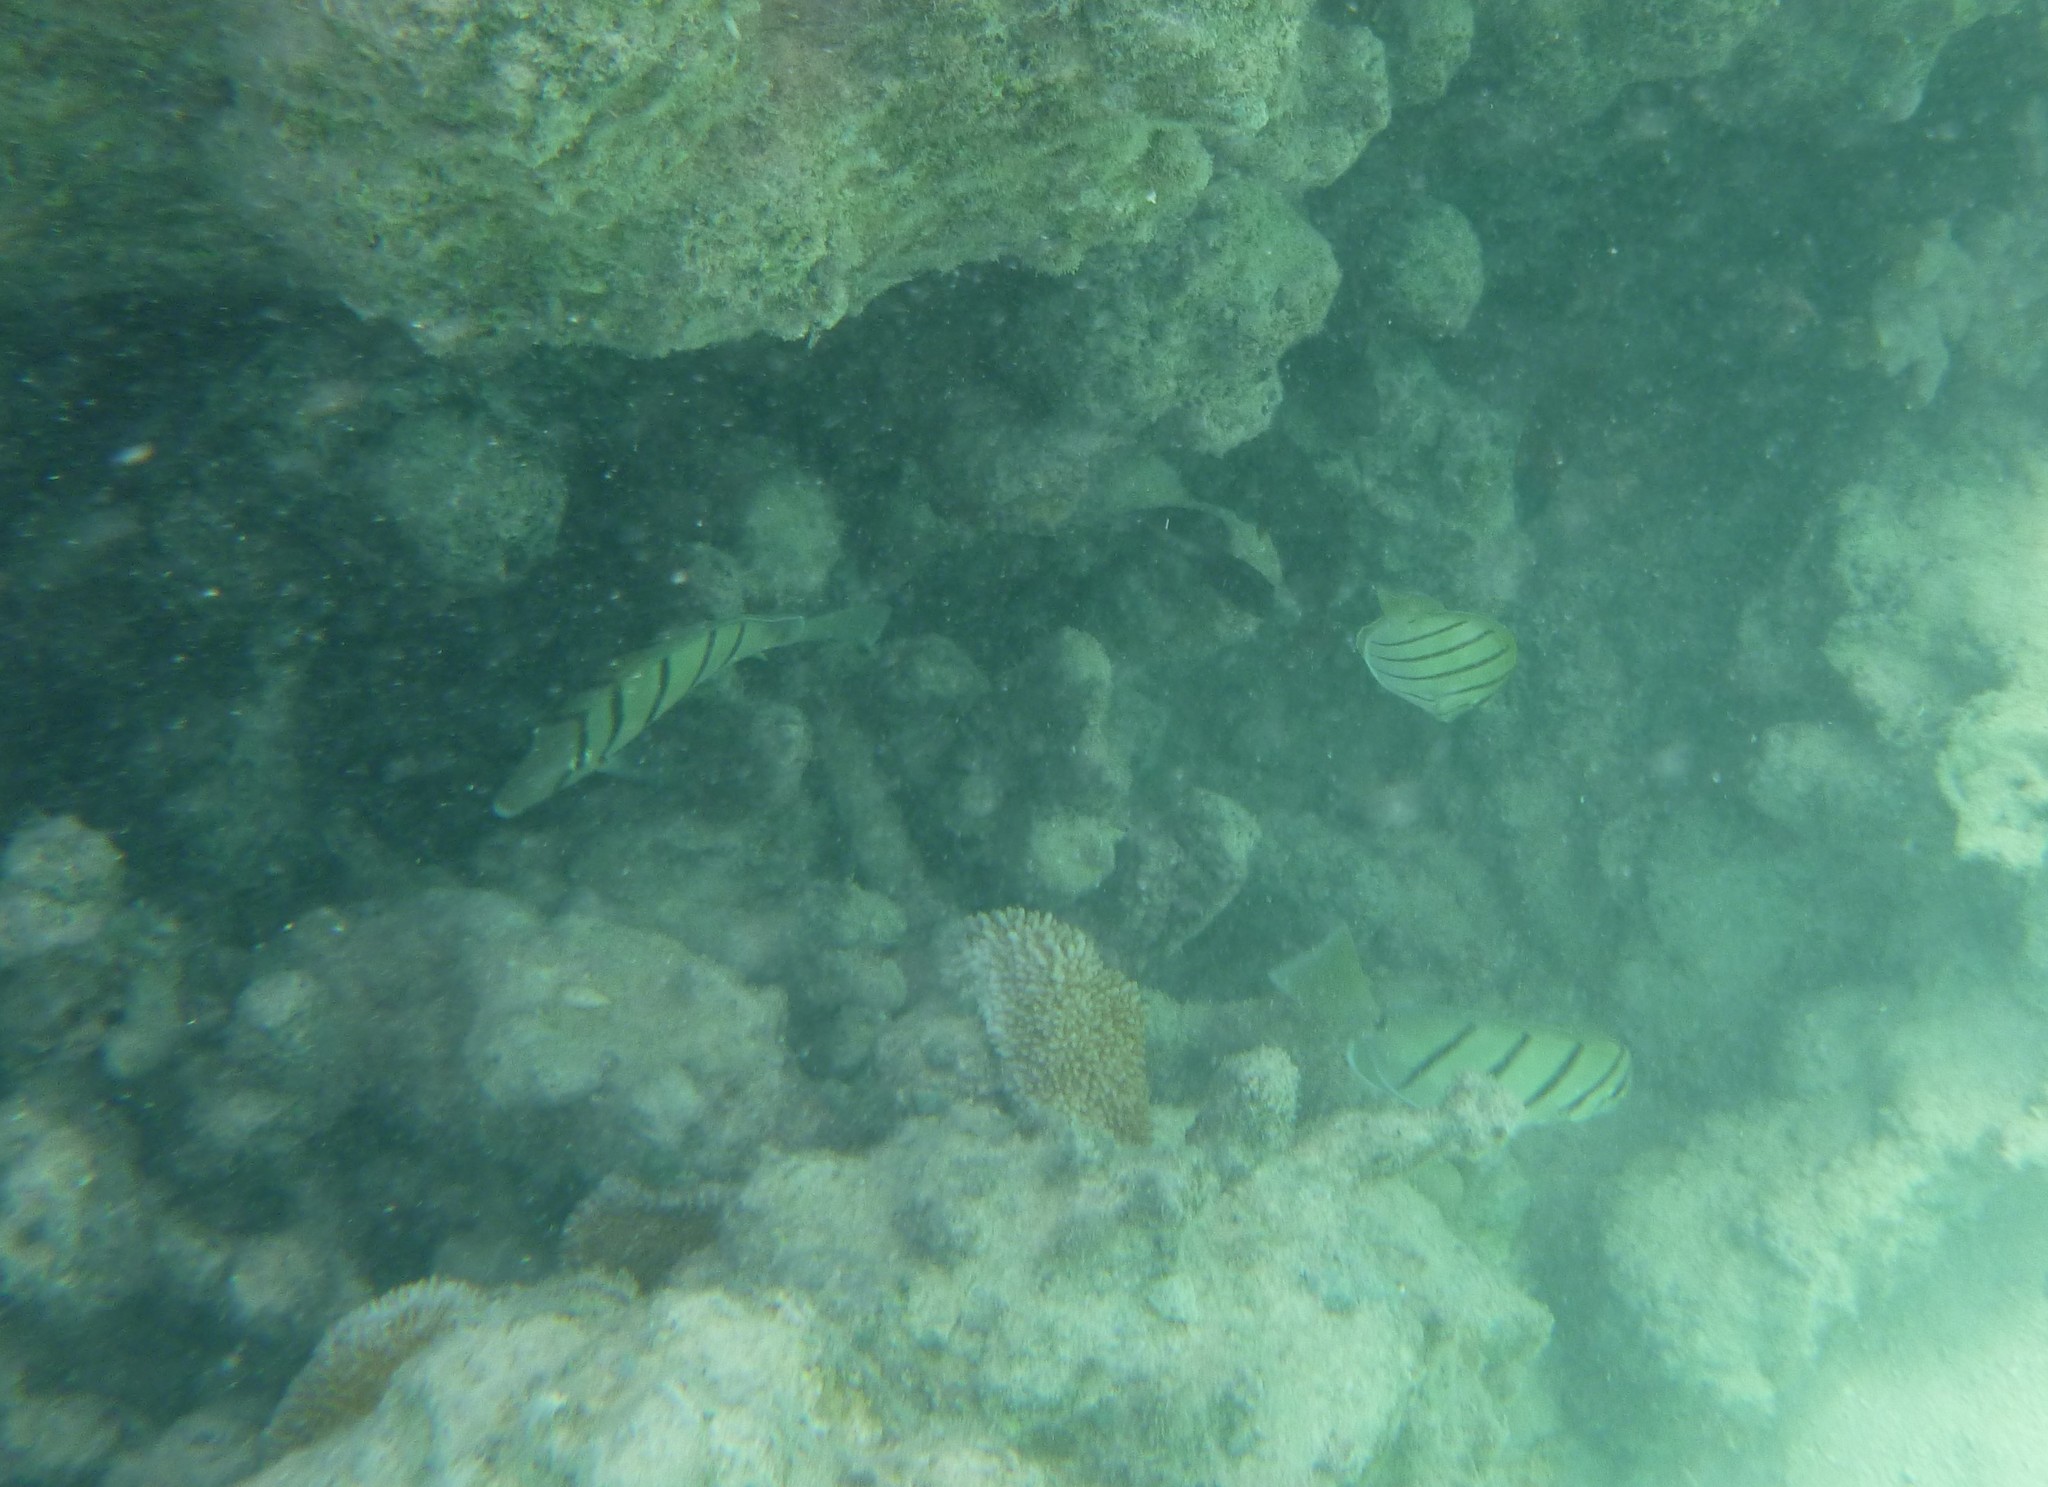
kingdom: Animalia
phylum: Chordata
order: Perciformes
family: Acanthuridae
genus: Acanthurus
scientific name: Acanthurus triostegus
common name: Convict surgeonfish
